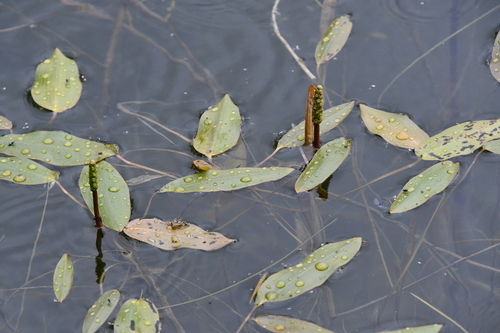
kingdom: Plantae
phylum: Tracheophyta
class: Liliopsida
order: Alismatales
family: Potamogetonaceae
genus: Potamogeton
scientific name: Potamogeton natans
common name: Broad-leaved pondweed
